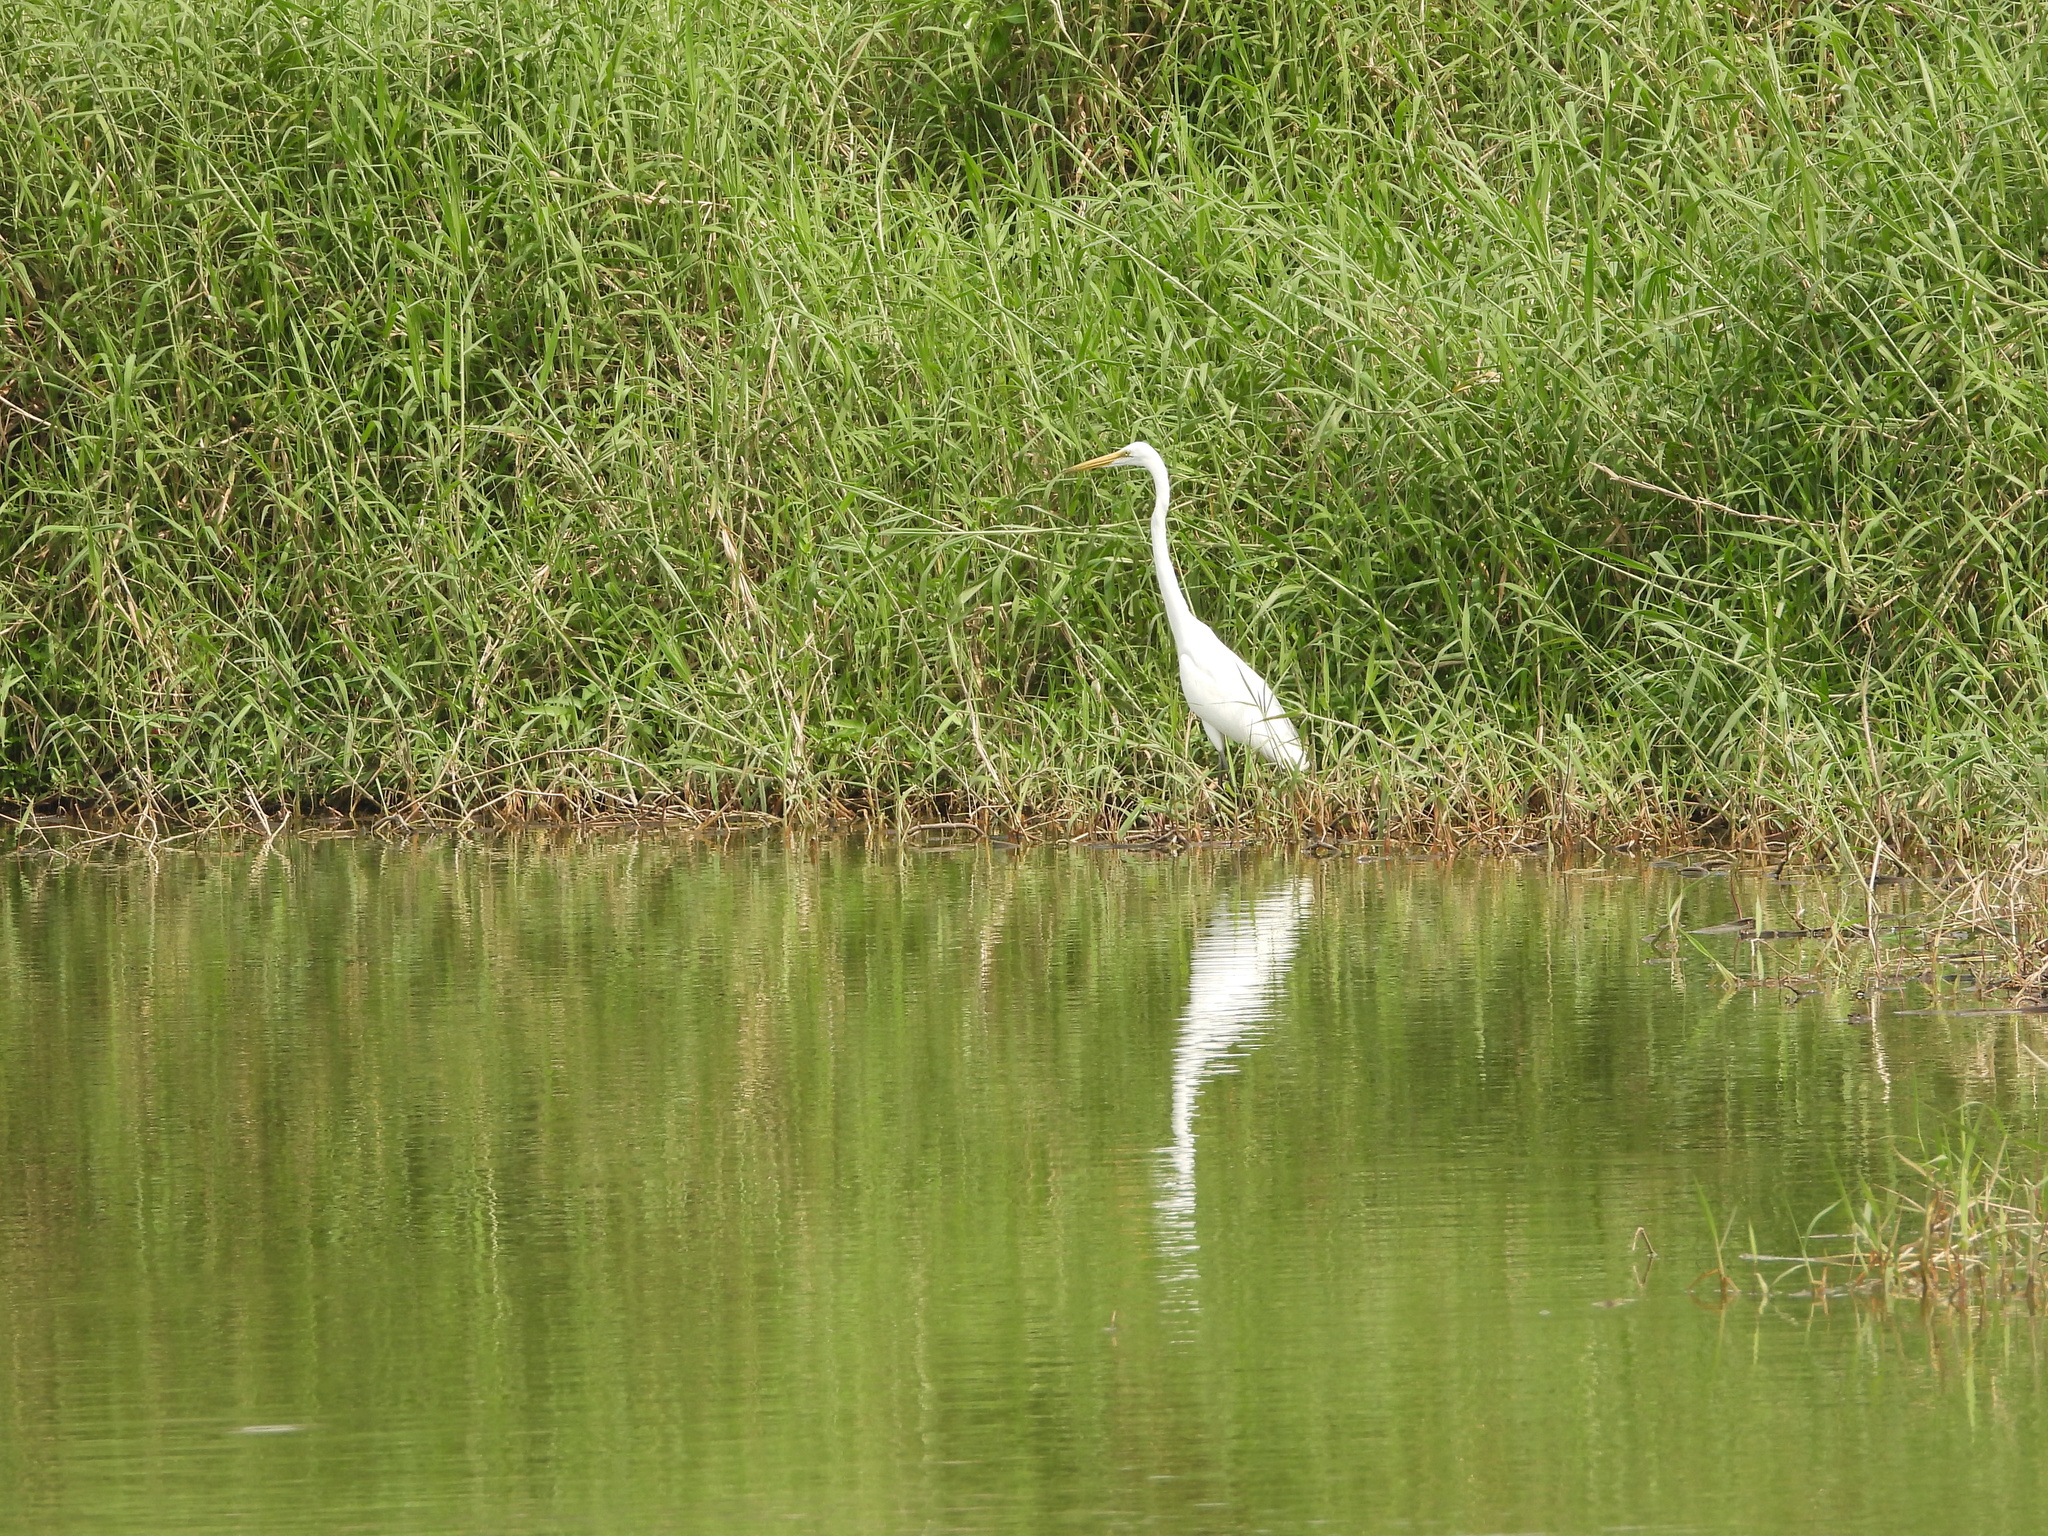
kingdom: Animalia
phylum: Chordata
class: Aves
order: Pelecaniformes
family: Ardeidae
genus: Ardea
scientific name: Ardea alba
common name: Great egret
